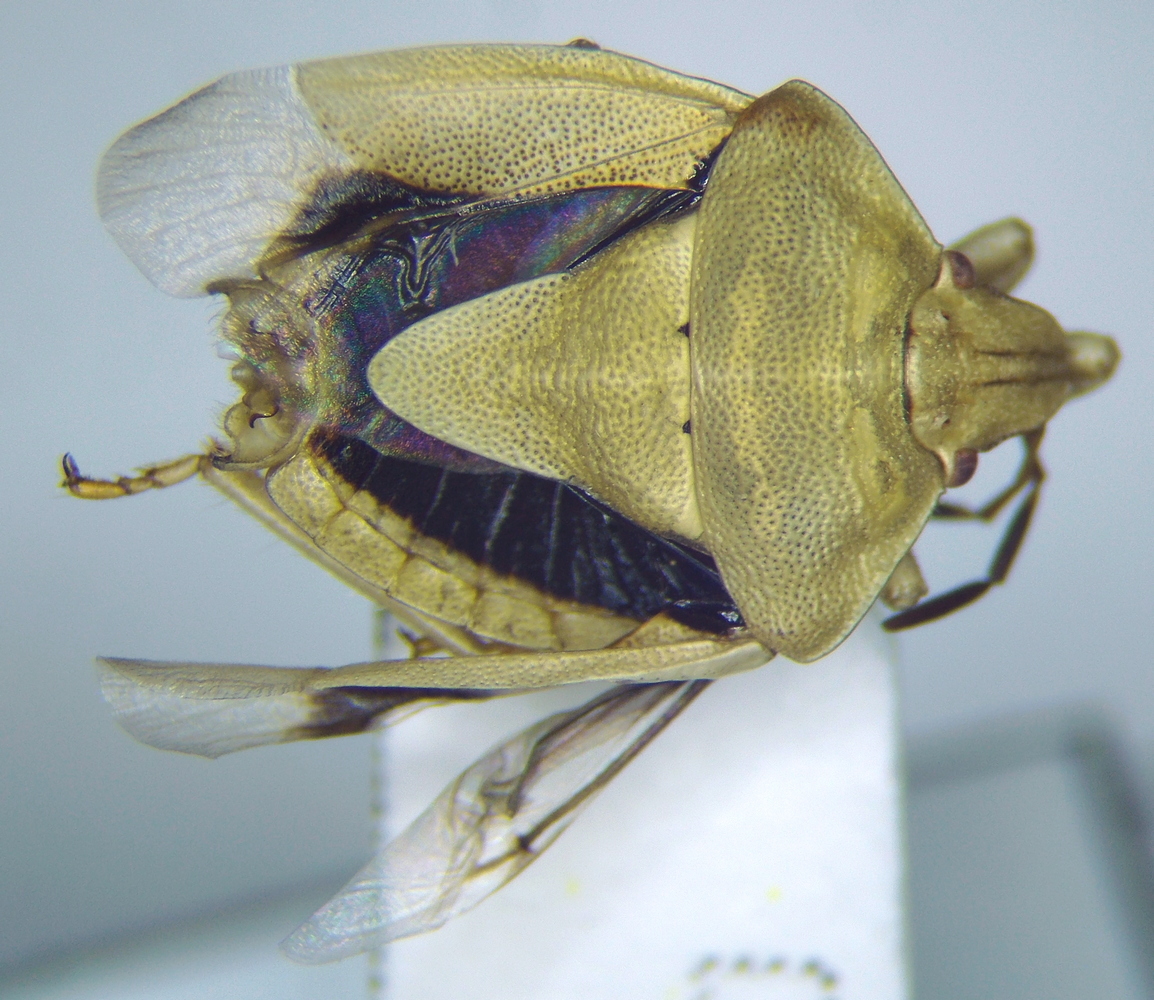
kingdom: Animalia
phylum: Arthropoda
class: Insecta
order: Hemiptera
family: Pentatomidae
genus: Antheminia
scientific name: Antheminia lunulata
